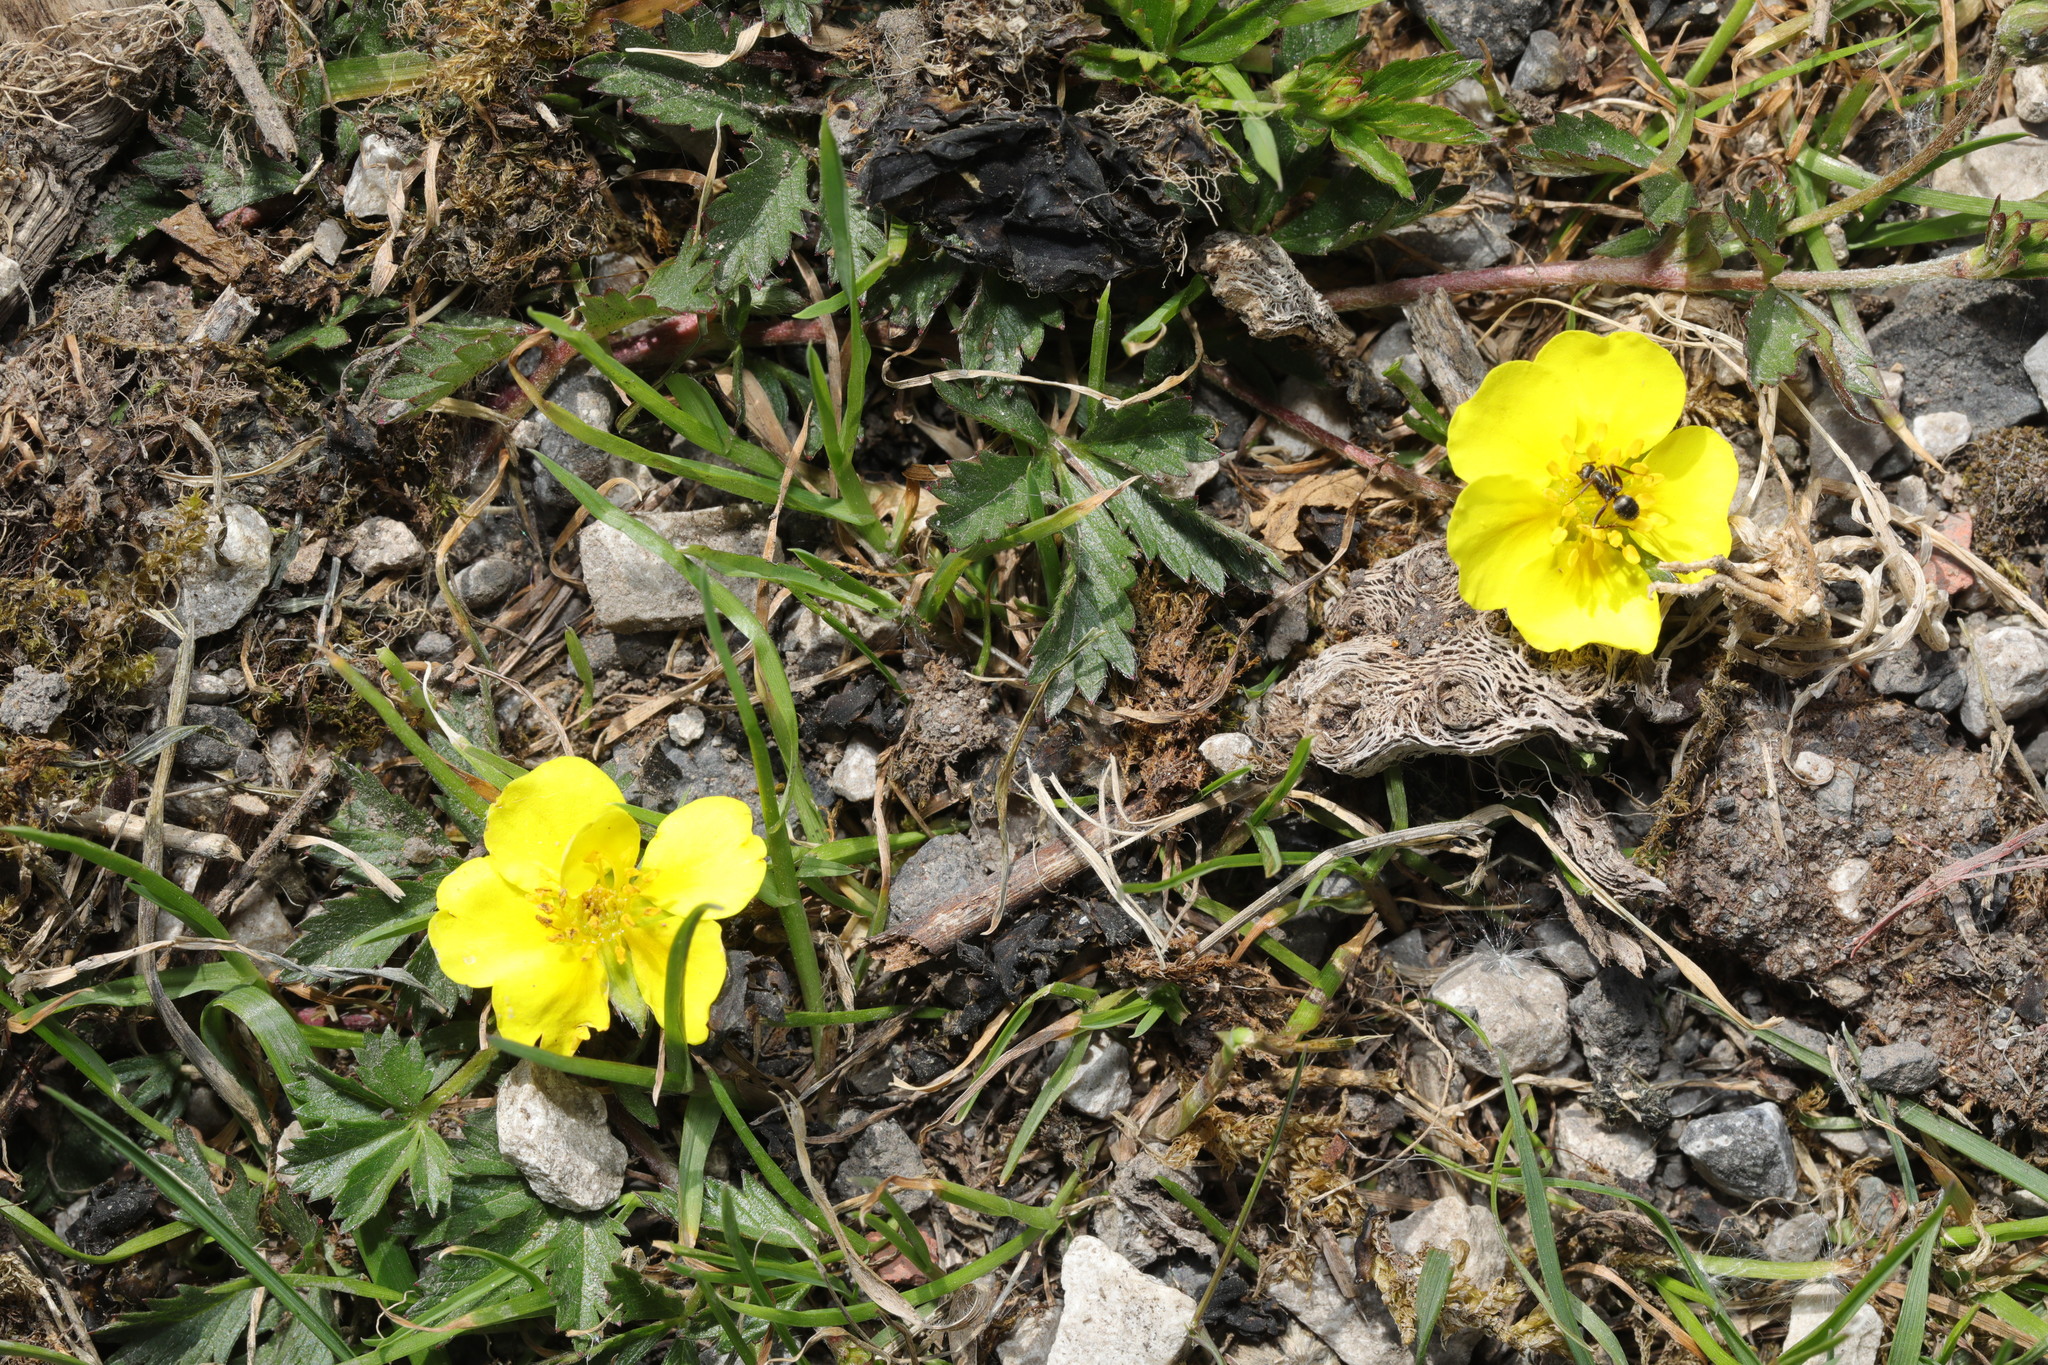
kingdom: Plantae
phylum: Tracheophyta
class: Magnoliopsida
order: Rosales
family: Rosaceae
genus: Potentilla
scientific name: Potentilla reptans
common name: Creeping cinquefoil
